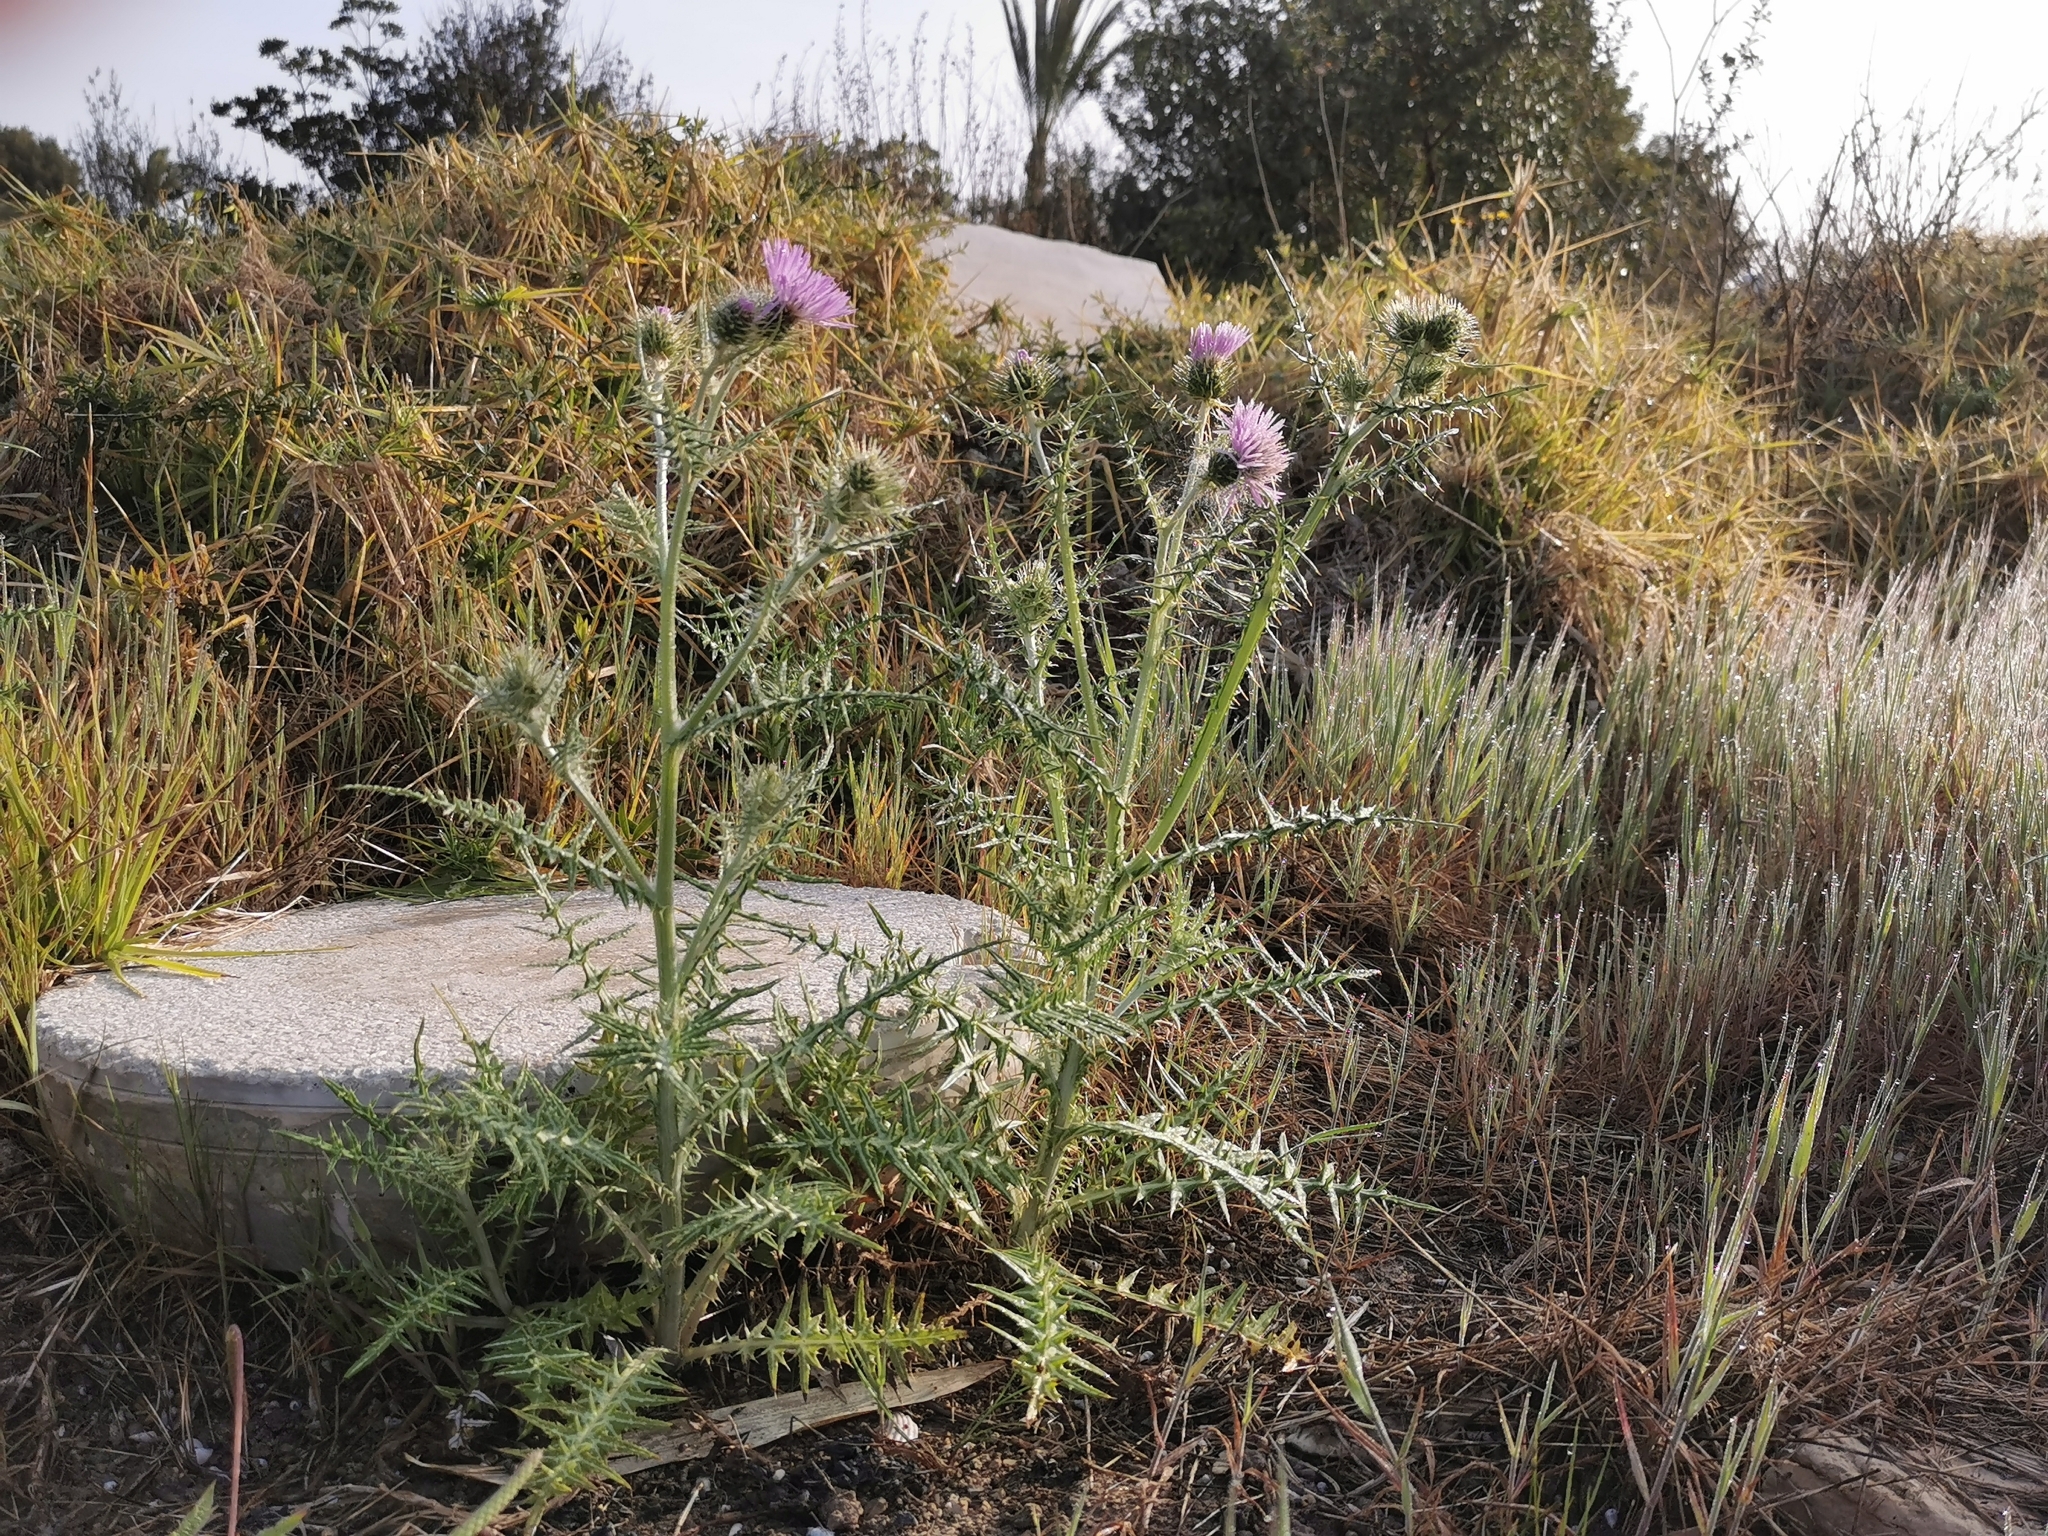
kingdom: Plantae
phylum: Tracheophyta
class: Magnoliopsida
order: Asterales
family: Asteraceae
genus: Galactites
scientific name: Galactites tomentosa
